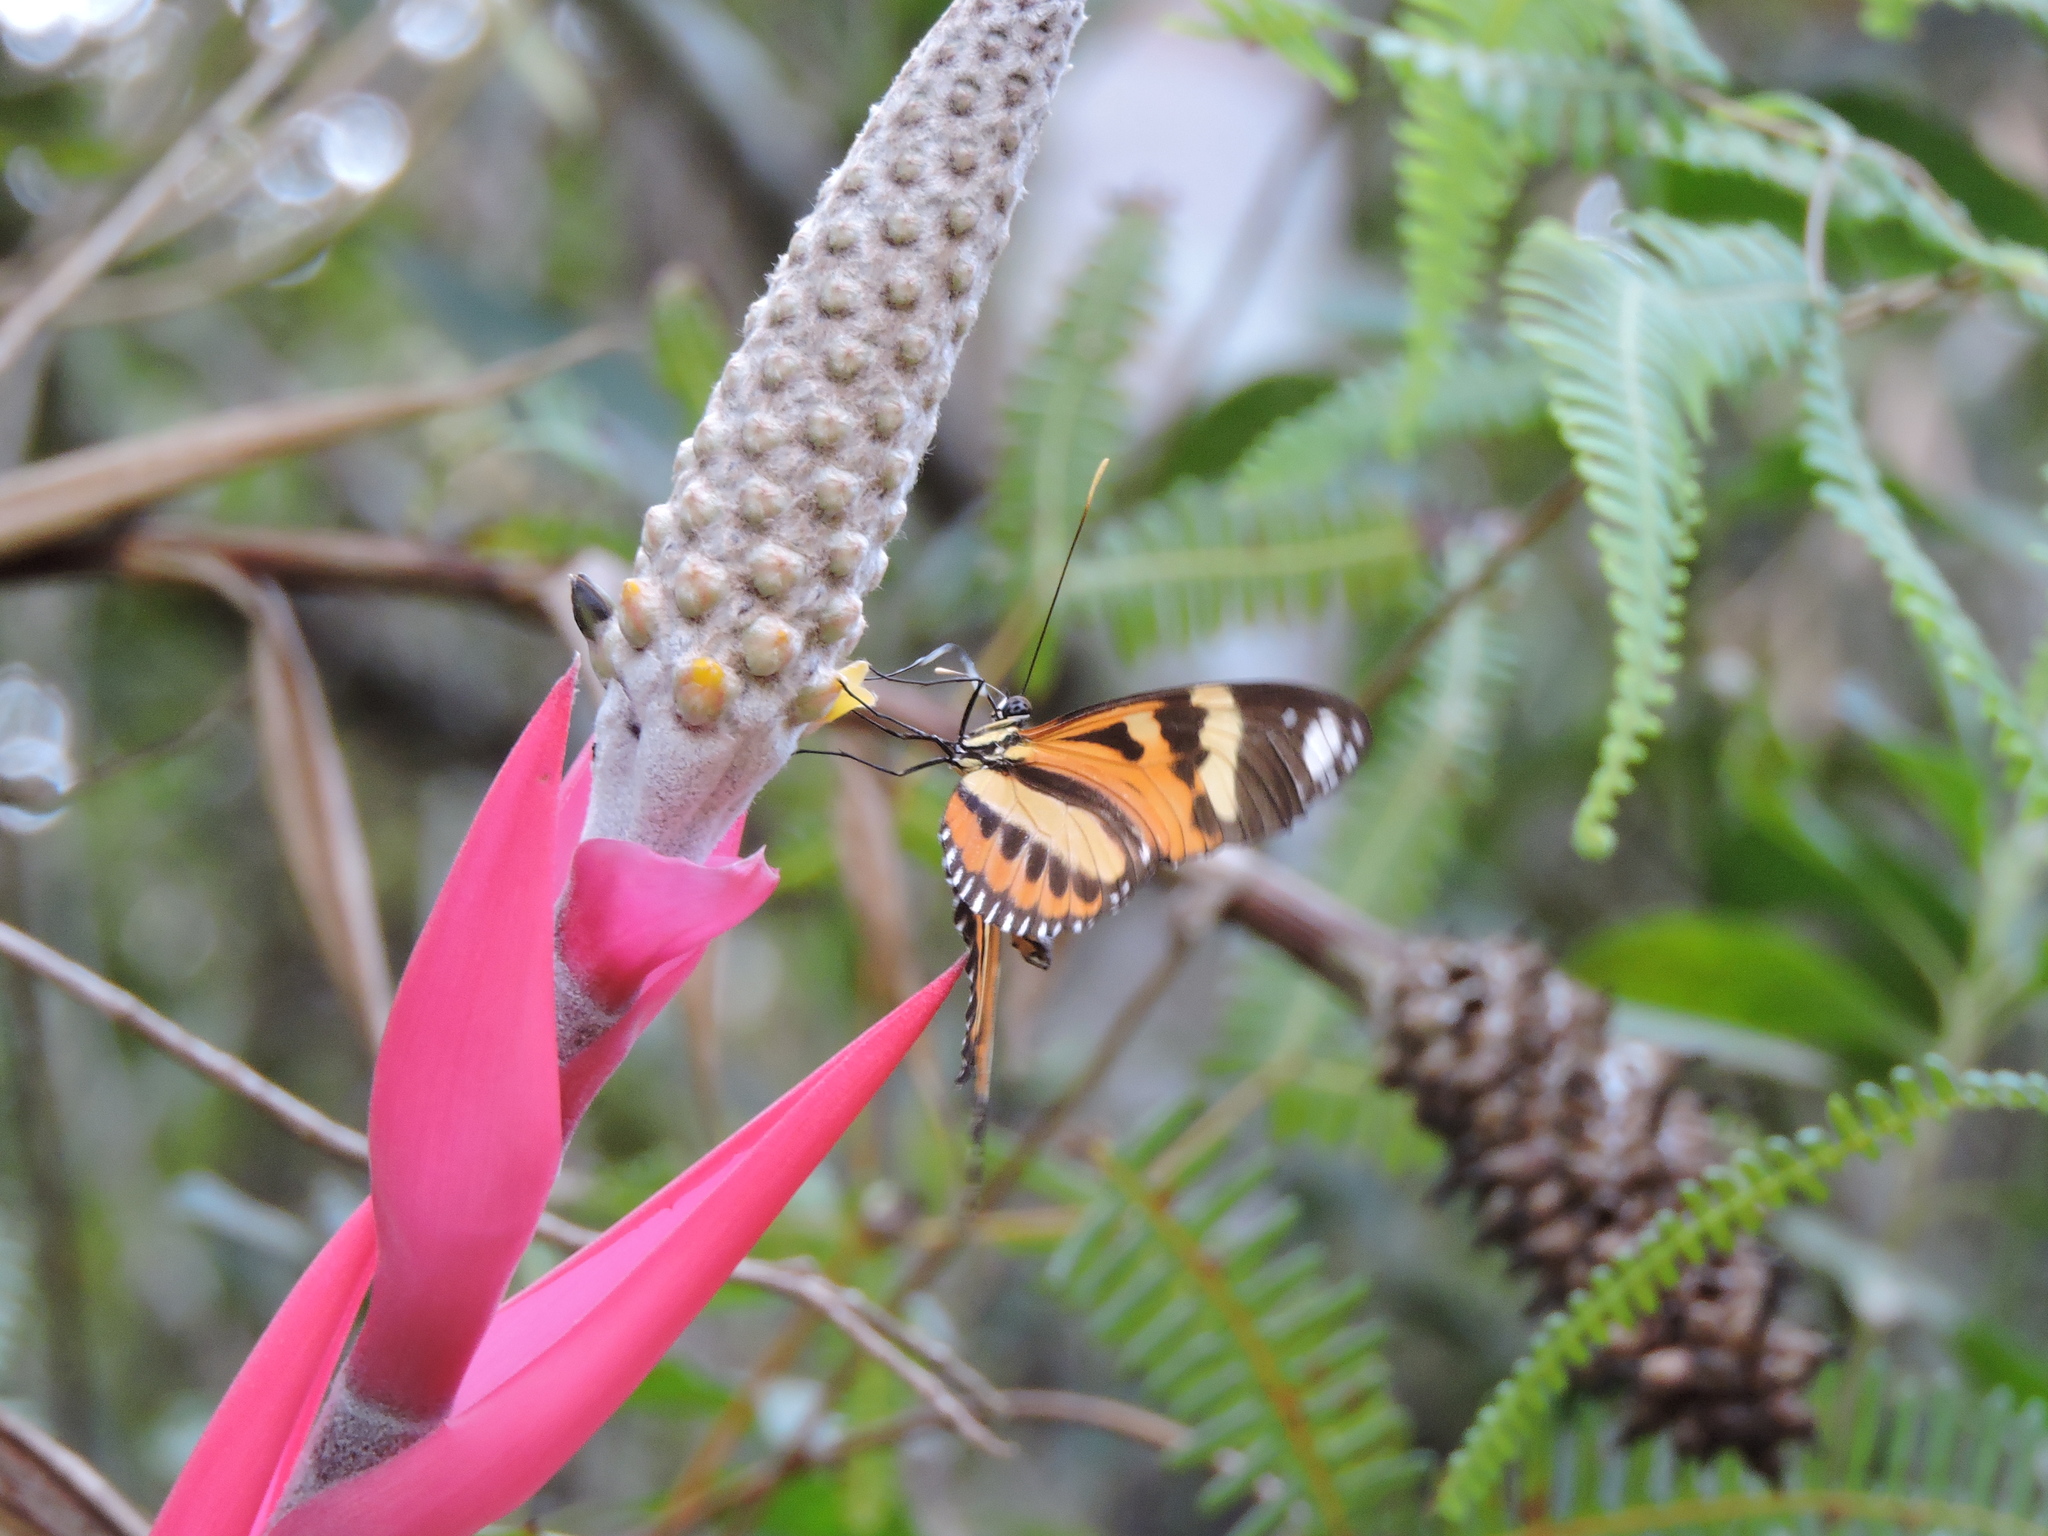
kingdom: Animalia
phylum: Arthropoda
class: Insecta
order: Lepidoptera
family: Nymphalidae
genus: Heliconius
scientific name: Heliconius ethilla
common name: Ethilia longwing
